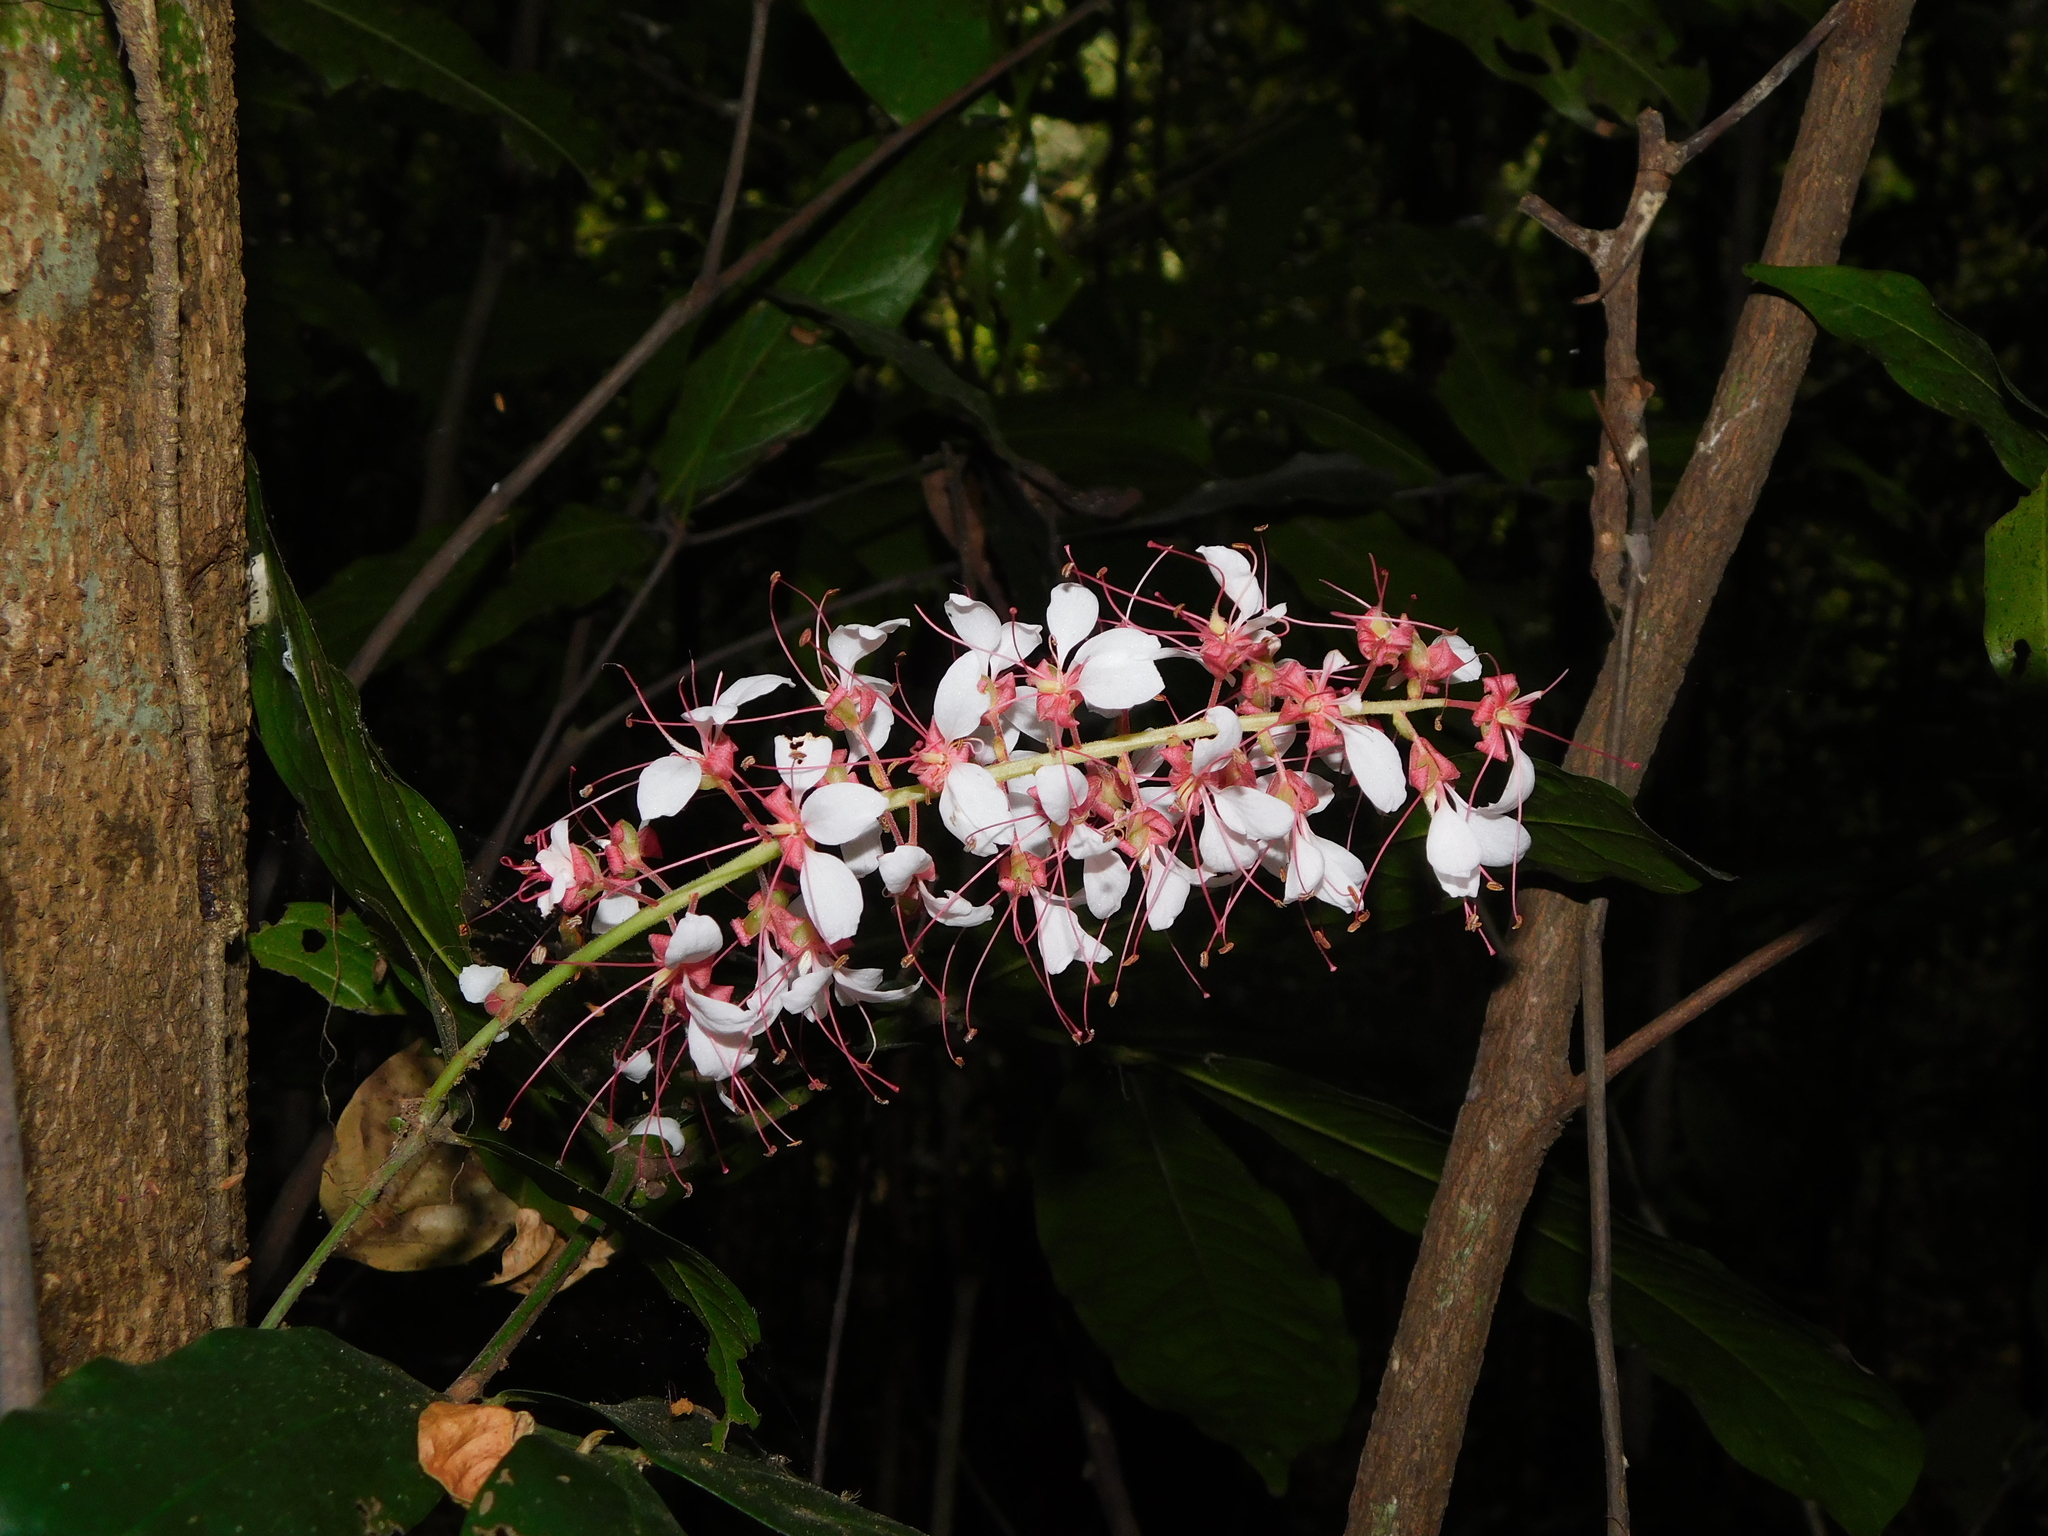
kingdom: Plantae
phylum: Tracheophyta
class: Magnoliopsida
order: Fabales
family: Fabaceae
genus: Humboldtia
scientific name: Humboldtia brunonis
